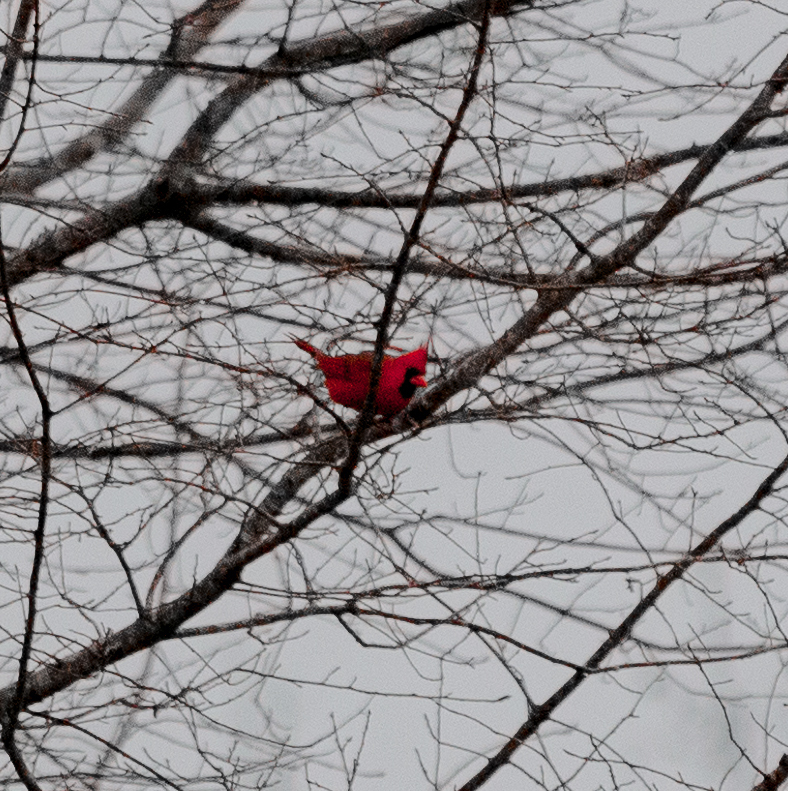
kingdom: Animalia
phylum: Chordata
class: Aves
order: Passeriformes
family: Cardinalidae
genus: Cardinalis
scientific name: Cardinalis cardinalis
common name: Northern cardinal
